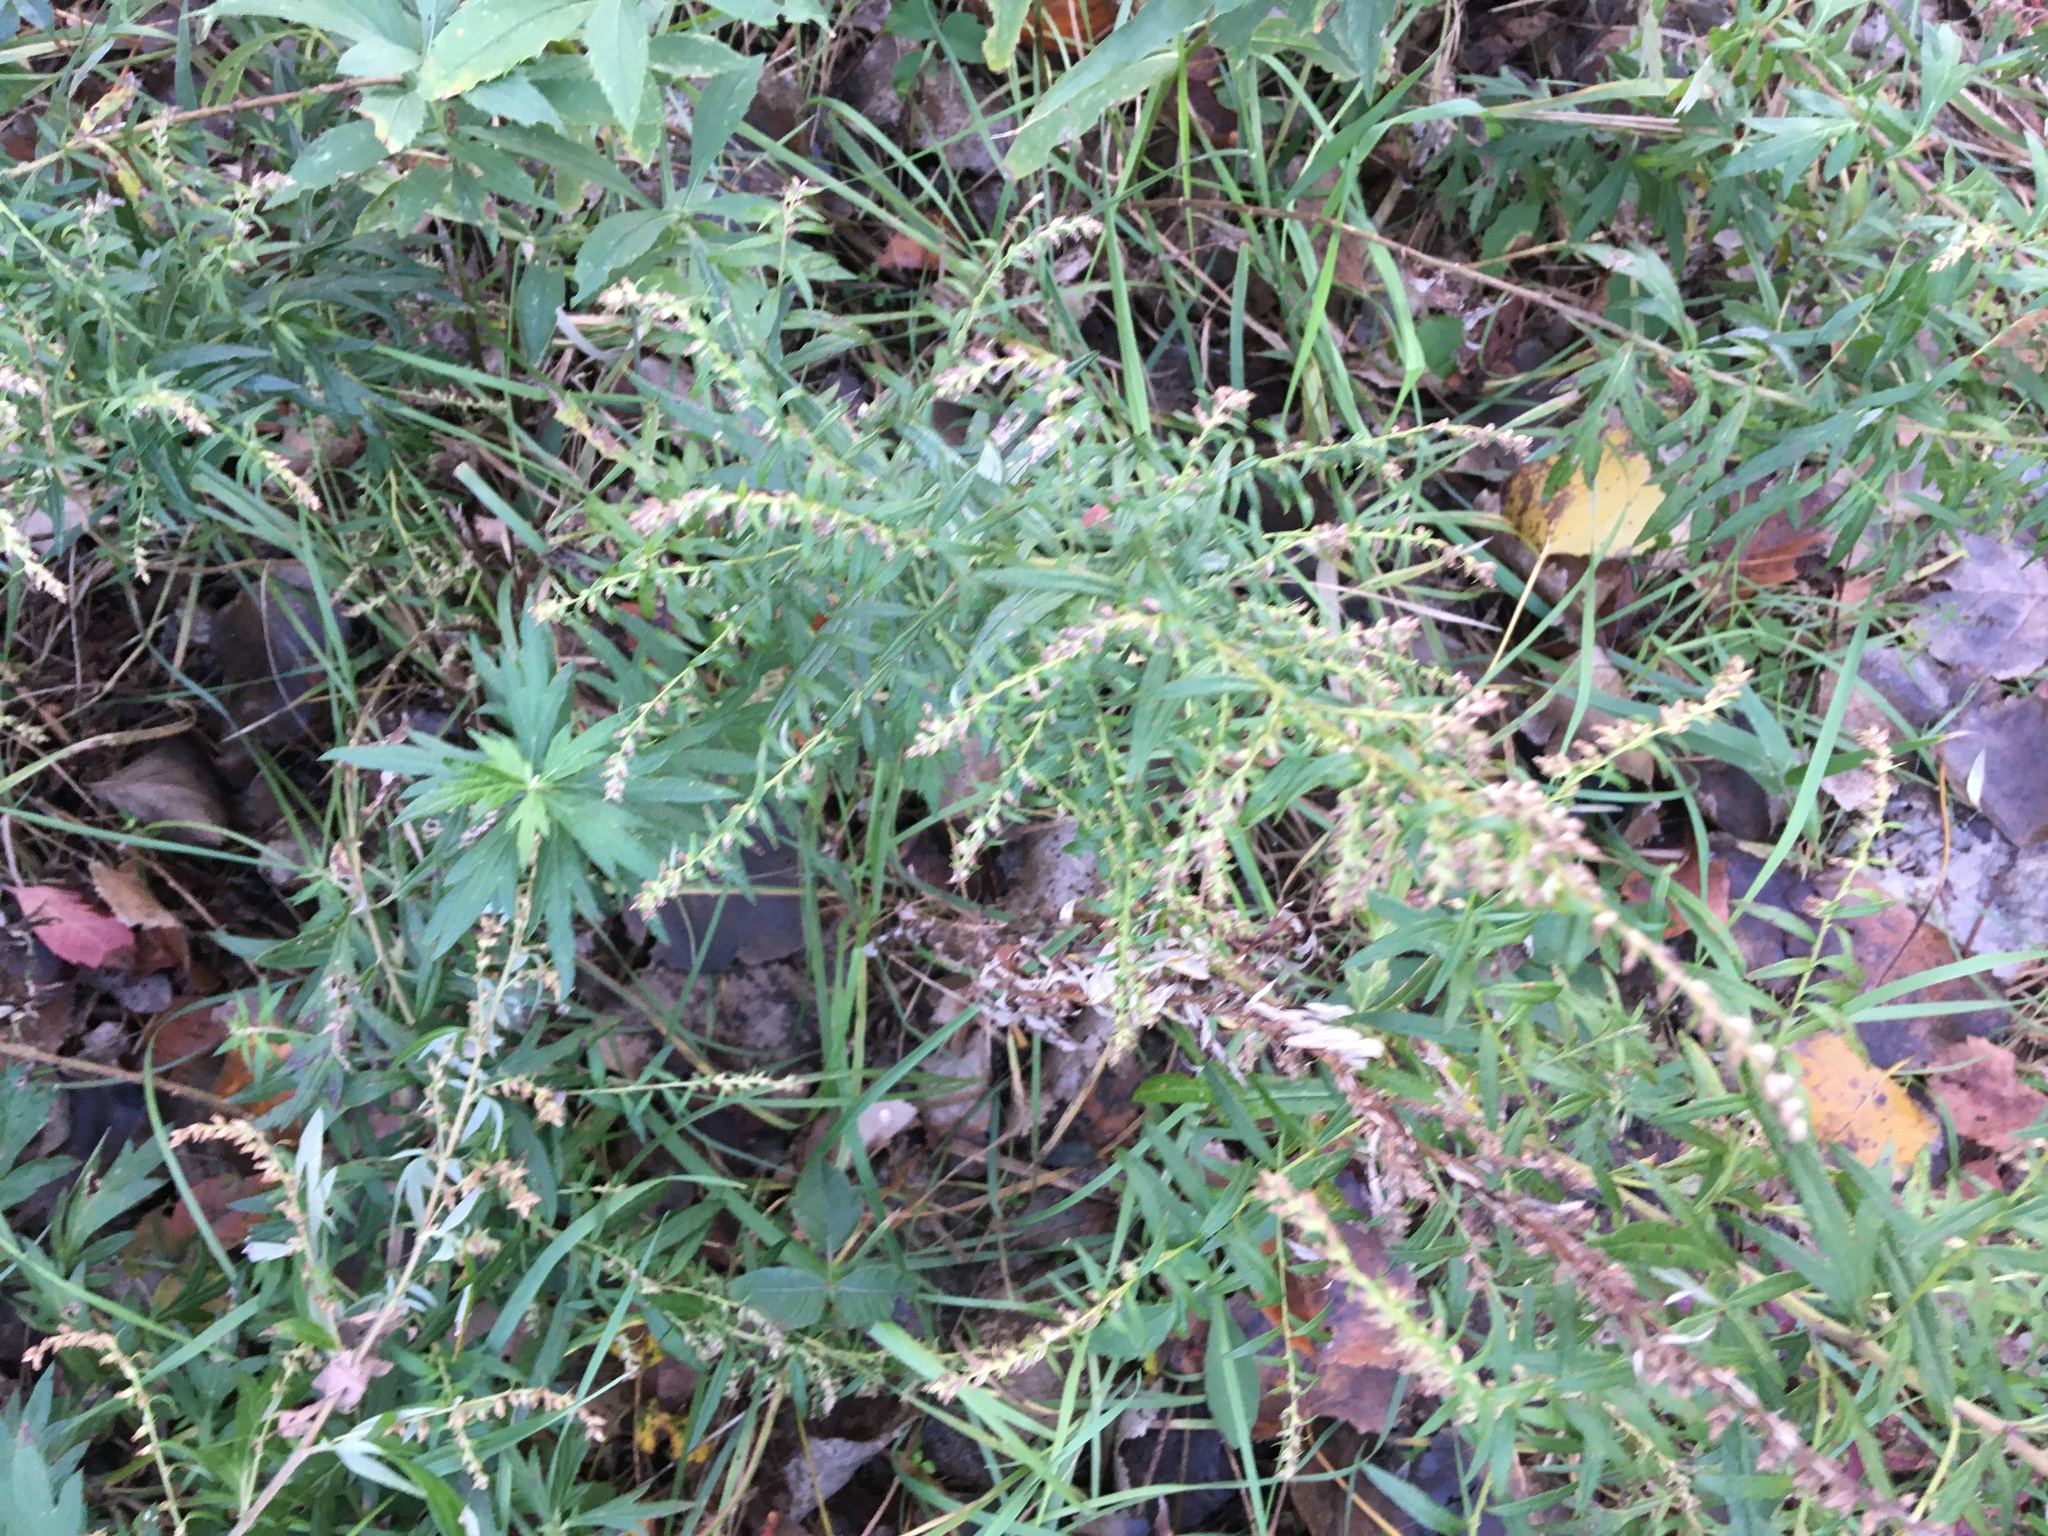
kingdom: Plantae
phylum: Tracheophyta
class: Magnoliopsida
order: Asterales
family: Asteraceae
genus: Artemisia
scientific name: Artemisia vulgaris
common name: Mugwort
